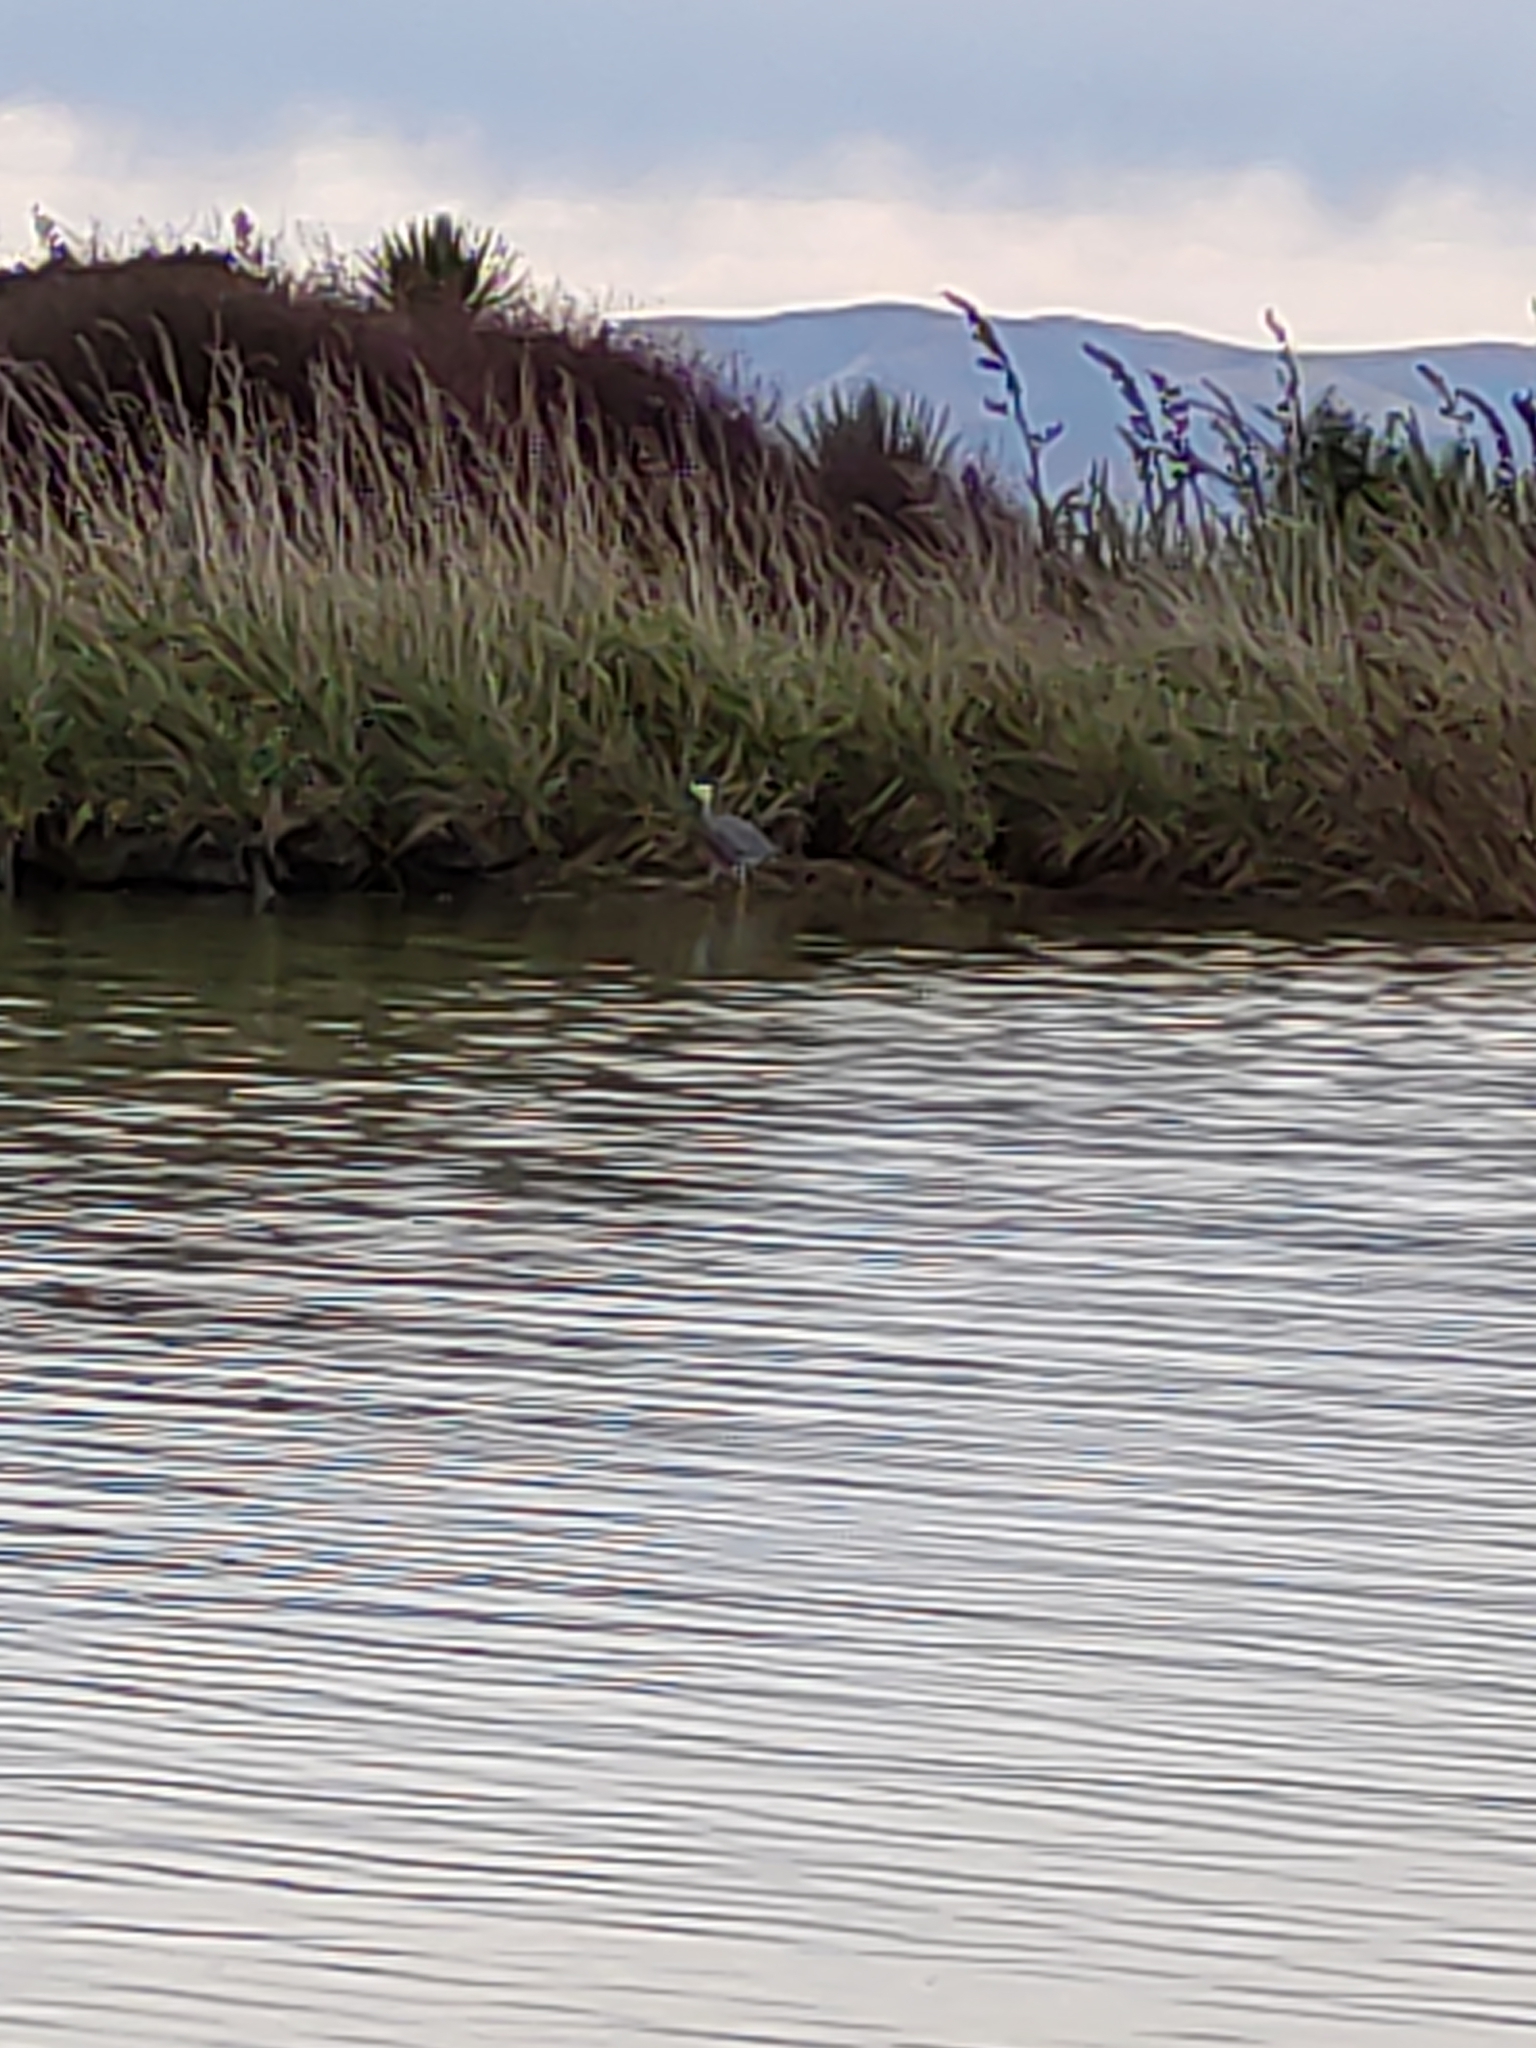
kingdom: Animalia
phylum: Chordata
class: Aves
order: Pelecaniformes
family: Ardeidae
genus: Egretta
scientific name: Egretta novaehollandiae
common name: White-faced heron
